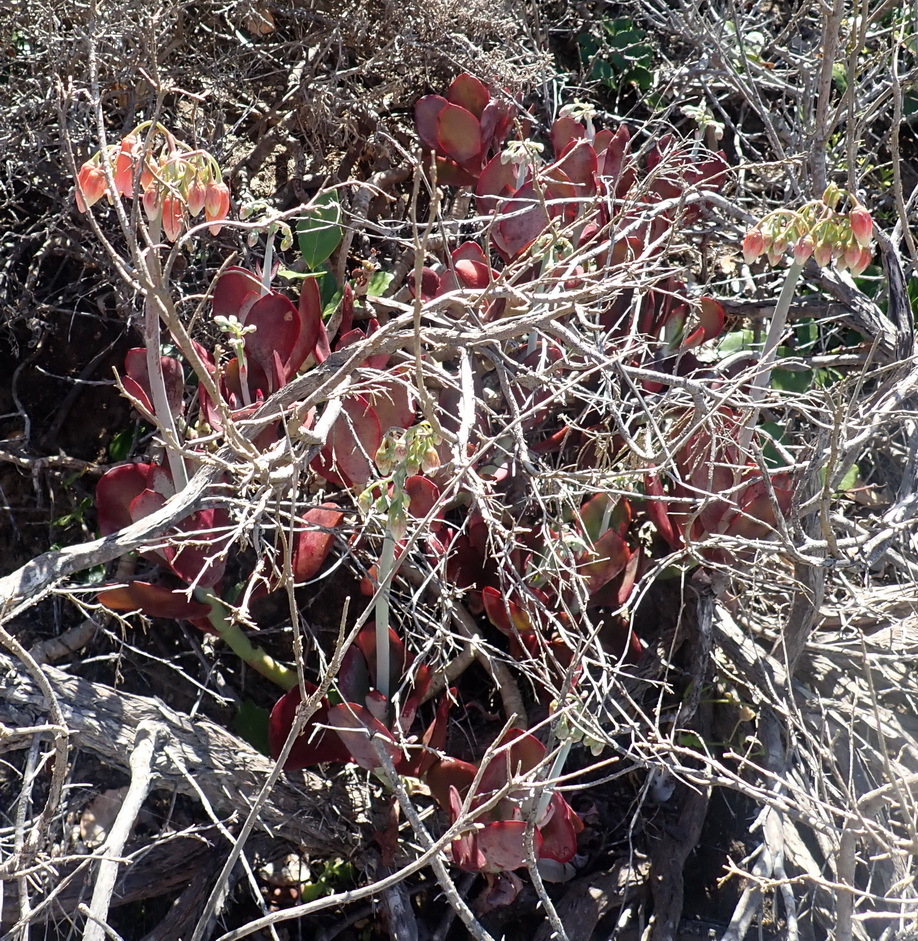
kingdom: Plantae
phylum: Tracheophyta
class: Magnoliopsida
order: Saxifragales
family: Crassulaceae
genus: Cotyledon
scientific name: Cotyledon orbiculata
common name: Pig's ear
